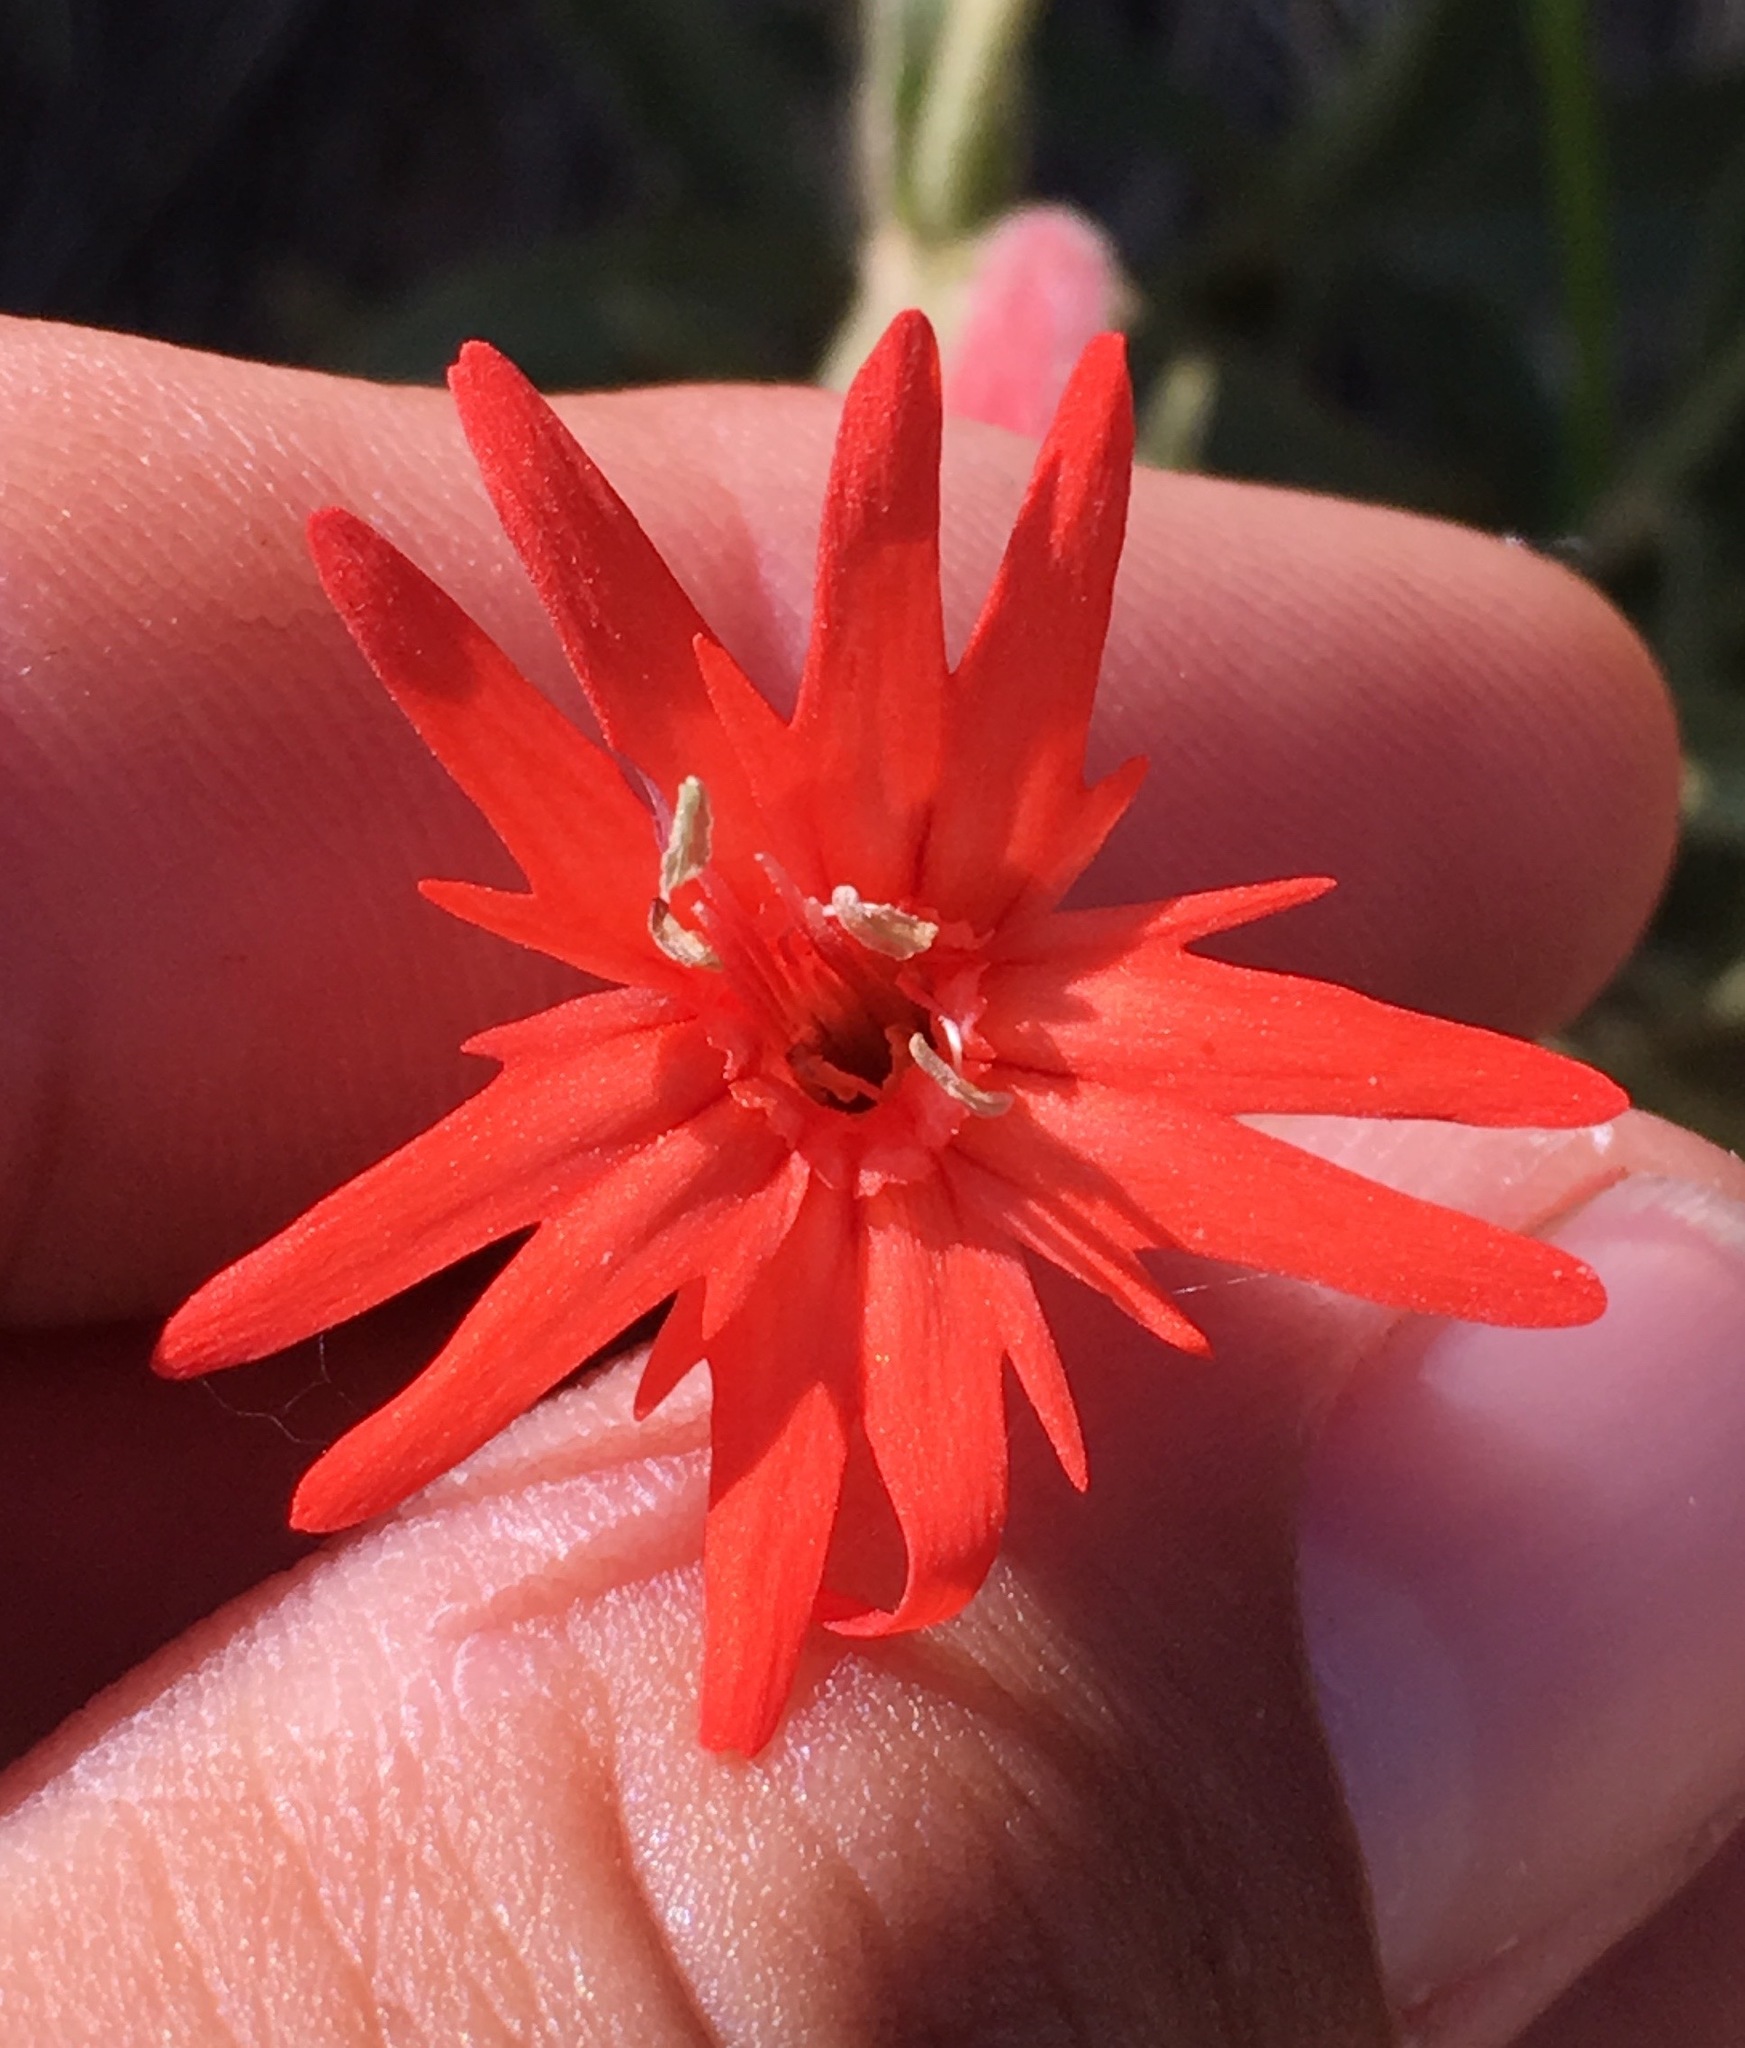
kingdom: Plantae
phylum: Tracheophyta
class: Magnoliopsida
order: Caryophyllales
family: Caryophyllaceae
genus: Silene
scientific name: Silene laciniata
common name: Indian-pink
